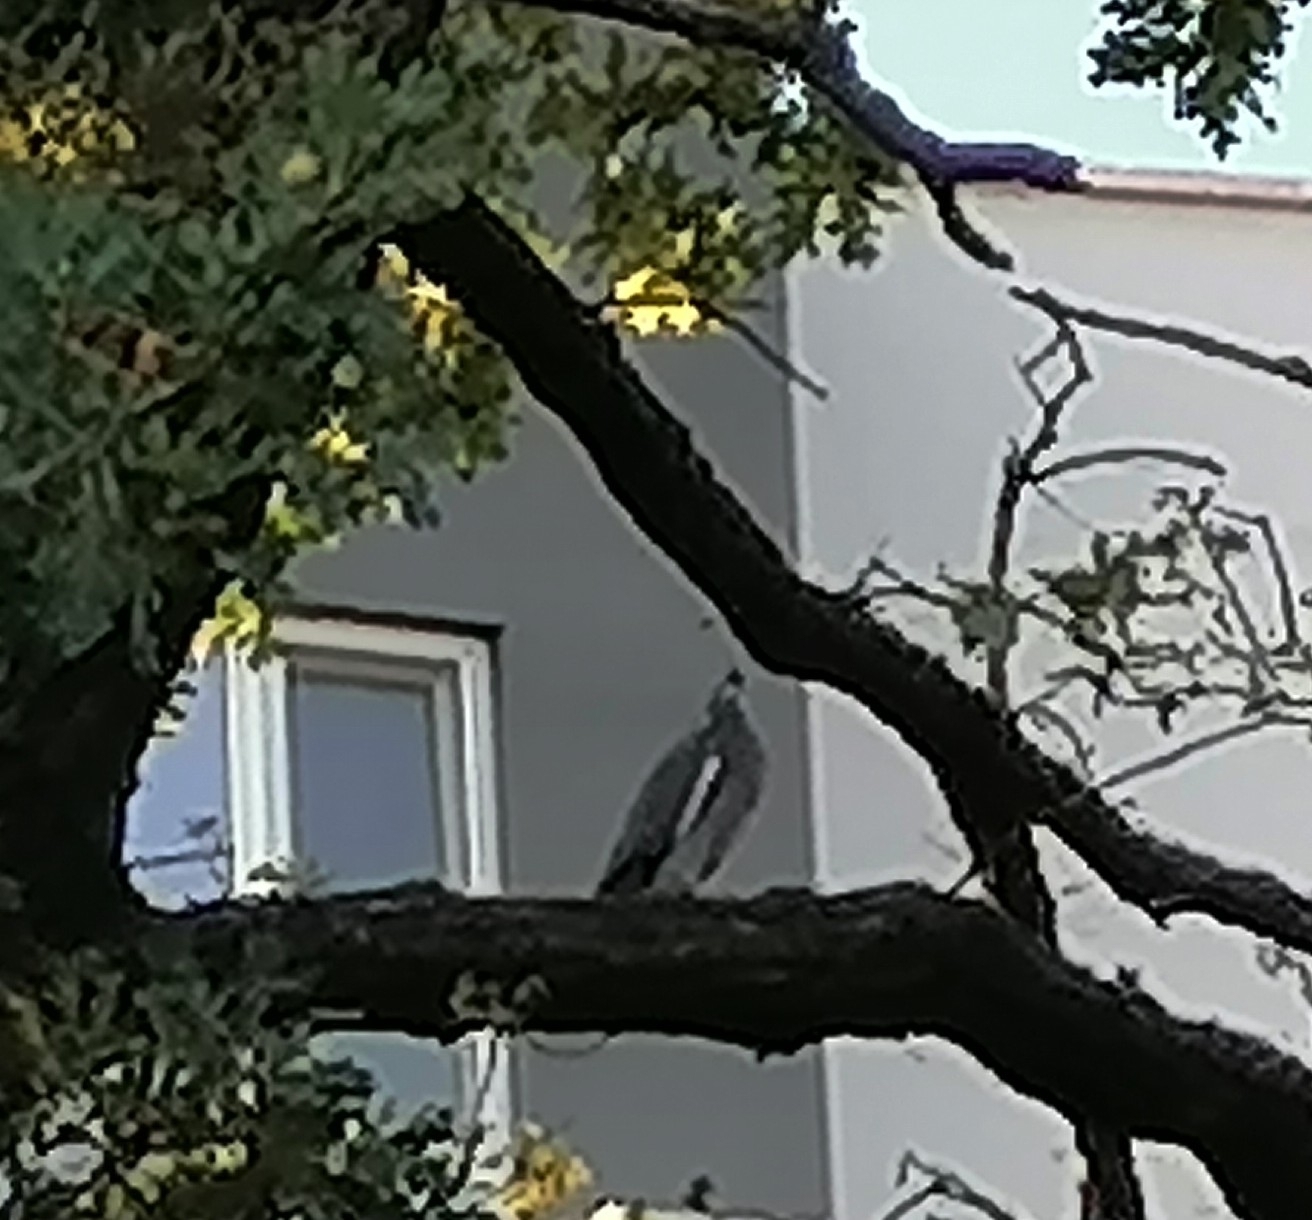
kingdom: Animalia
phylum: Chordata
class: Aves
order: Columbiformes
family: Columbidae
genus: Columba
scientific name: Columba palumbus
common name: Common wood pigeon
